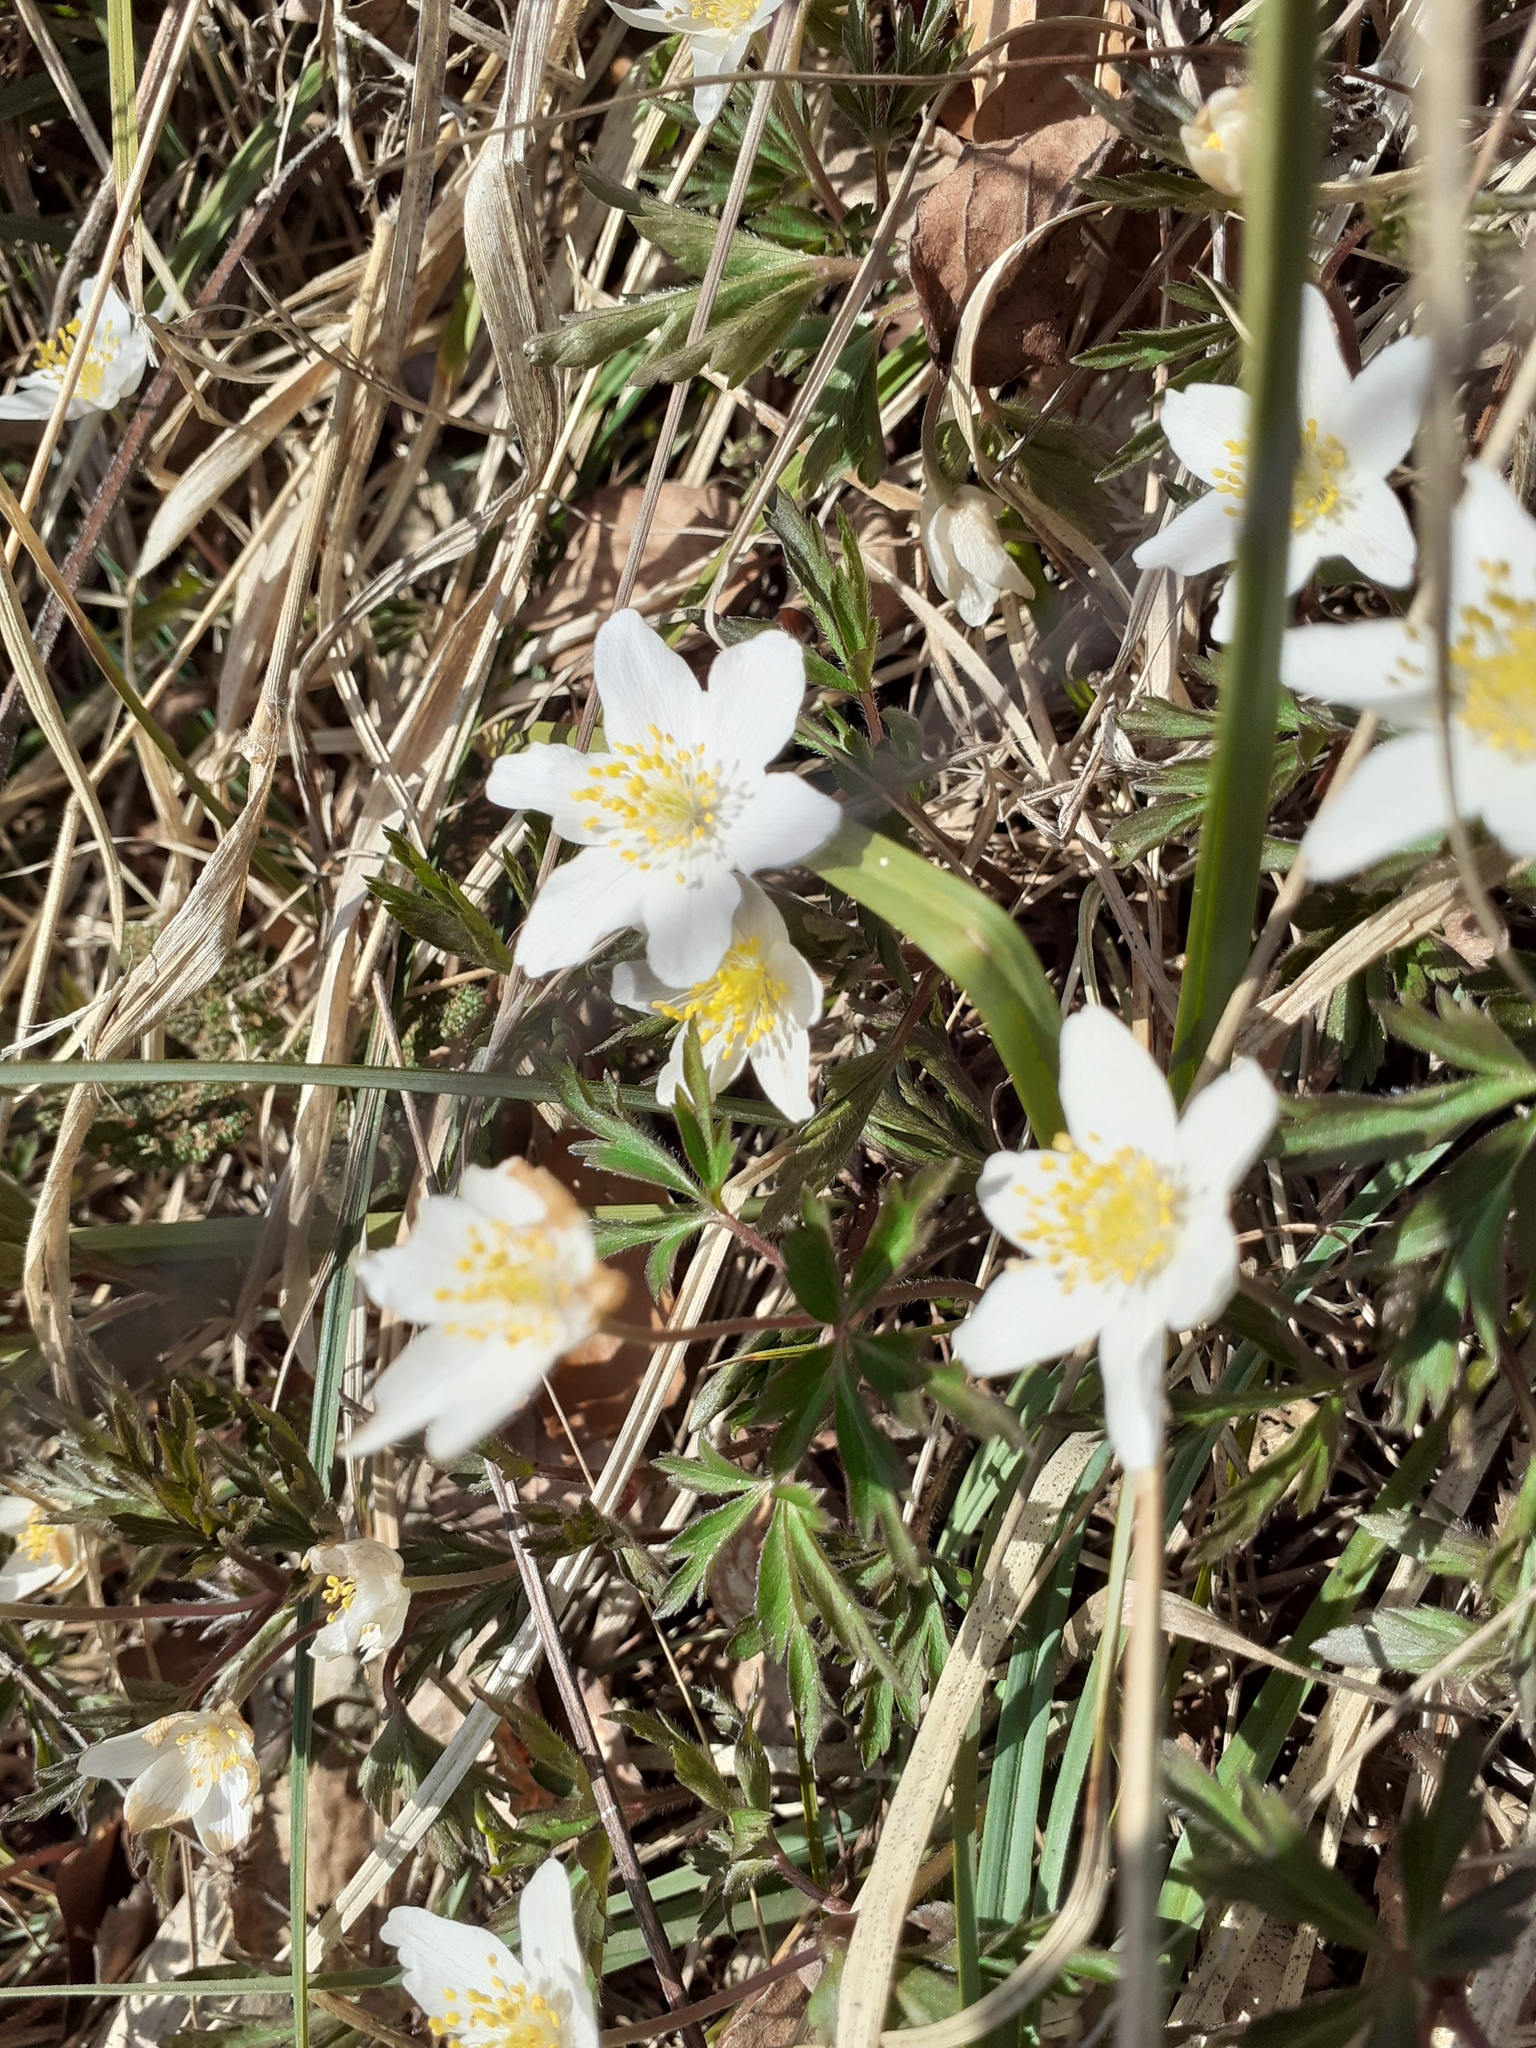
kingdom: Plantae
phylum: Tracheophyta
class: Magnoliopsida
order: Ranunculales
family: Ranunculaceae
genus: Anemone
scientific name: Anemone nemorosa
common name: Wood anemone
